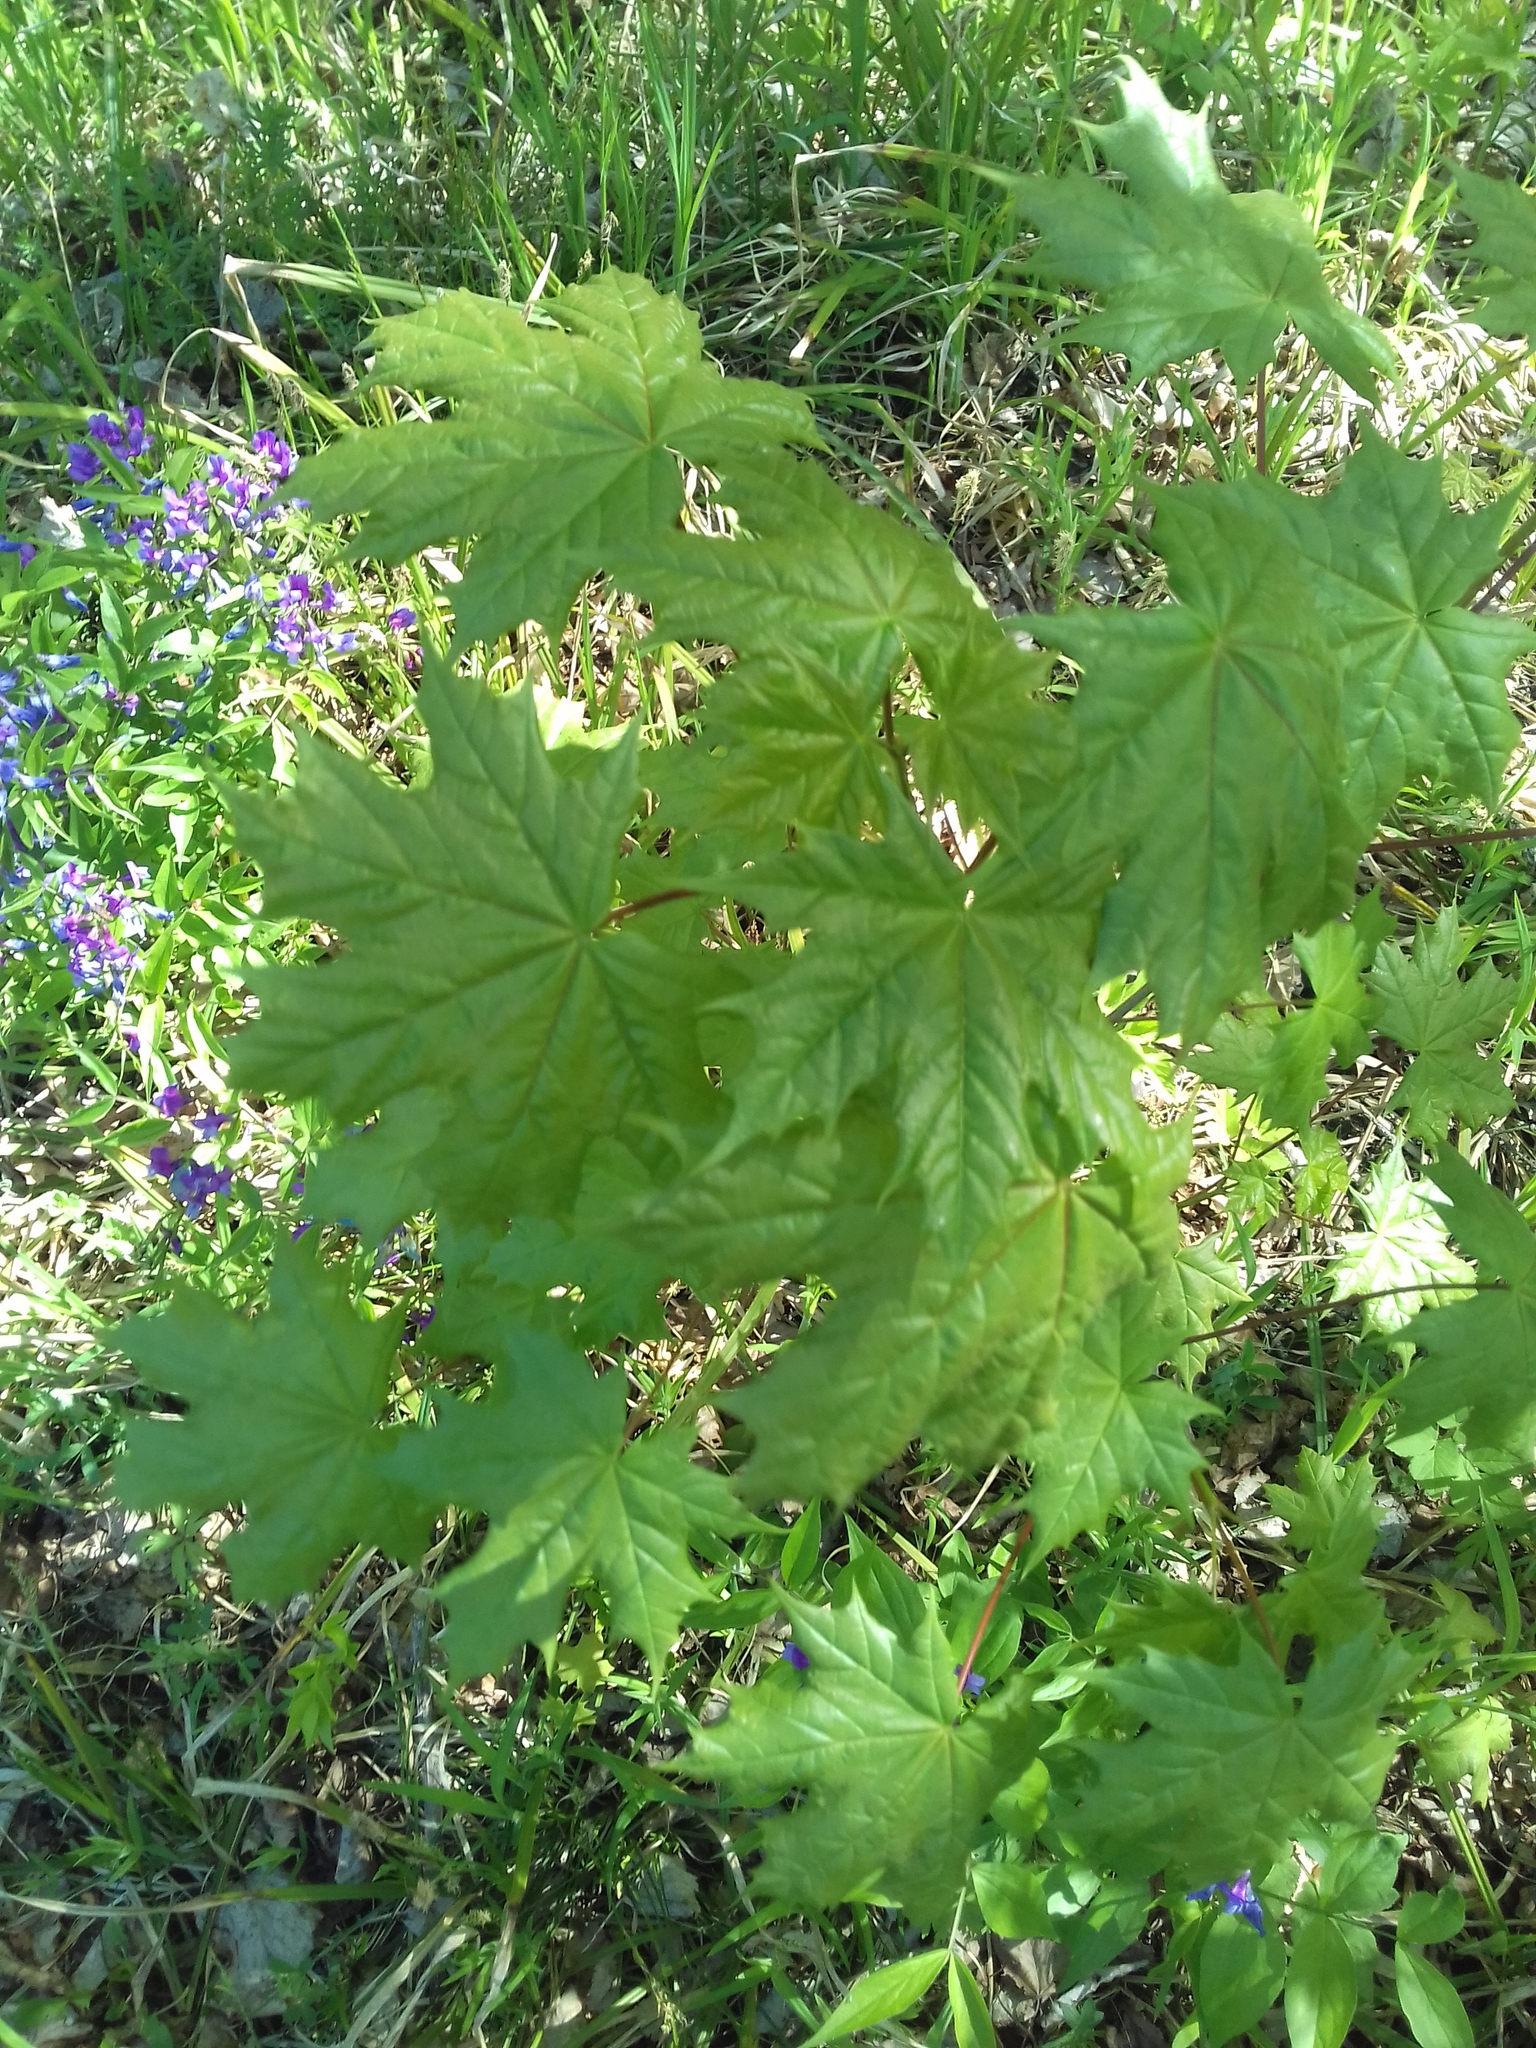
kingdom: Plantae
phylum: Tracheophyta
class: Magnoliopsida
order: Sapindales
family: Sapindaceae
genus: Acer
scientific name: Acer platanoides
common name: Norway maple
